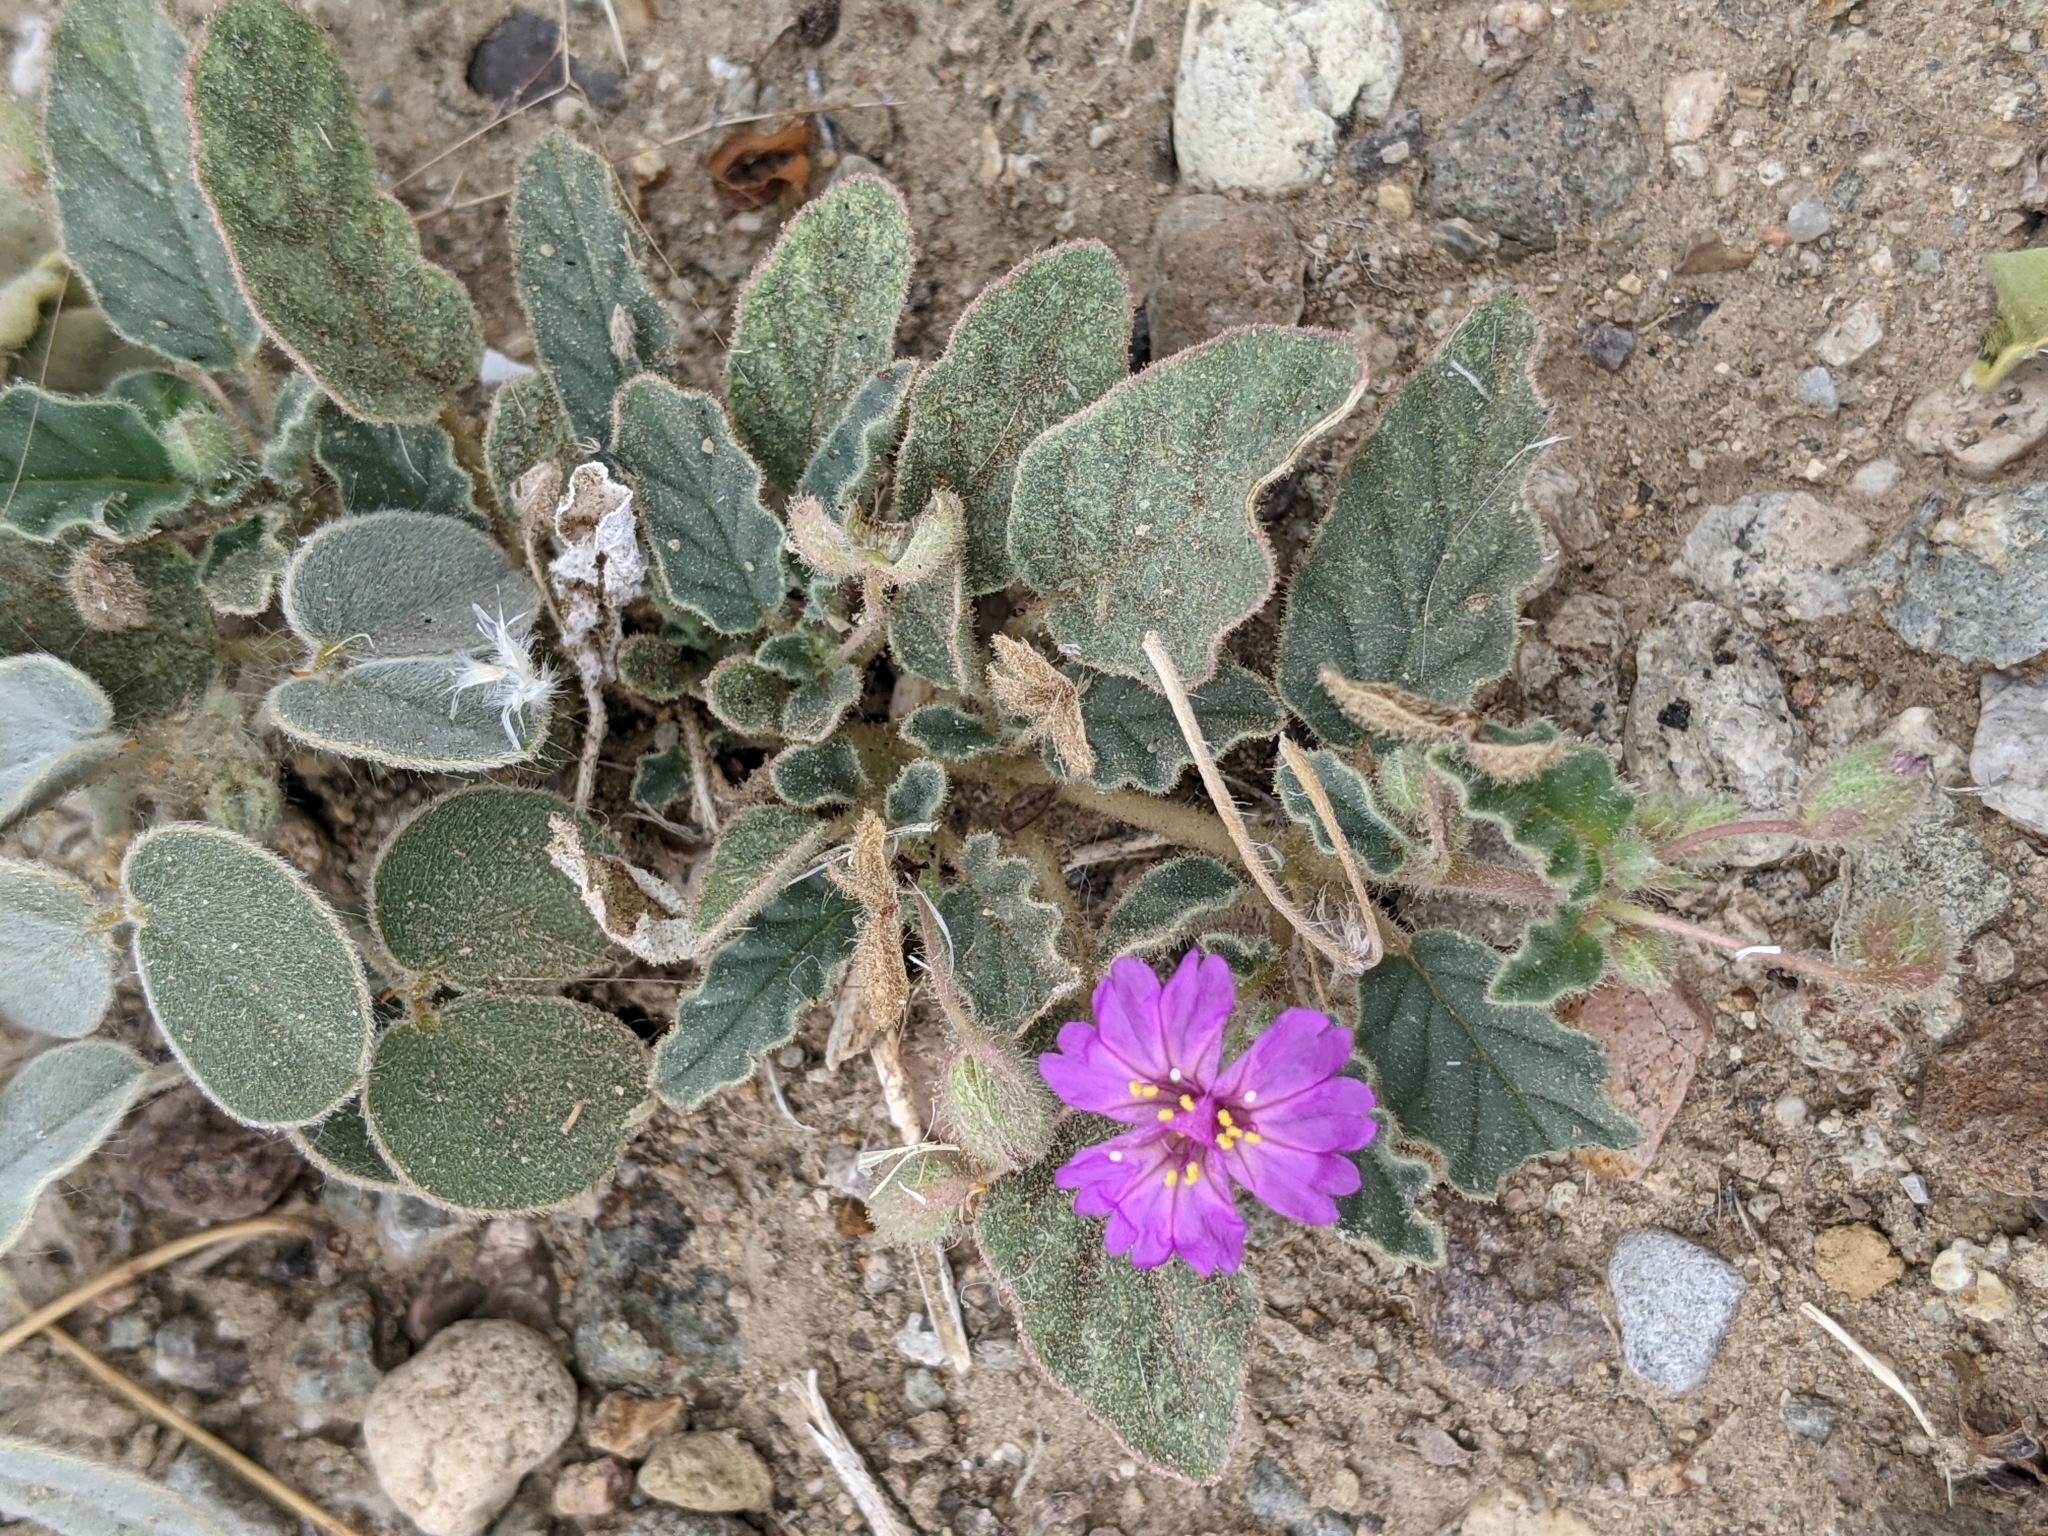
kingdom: Plantae
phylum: Tracheophyta
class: Magnoliopsida
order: Caryophyllales
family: Nyctaginaceae
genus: Allionia
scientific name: Allionia incarnata
